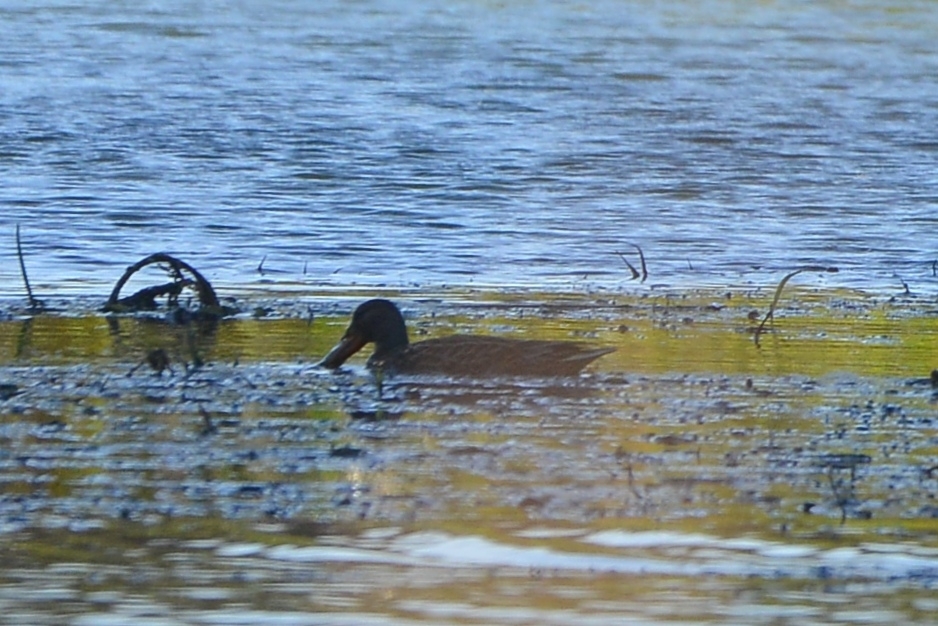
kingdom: Animalia
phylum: Chordata
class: Aves
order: Anseriformes
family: Anatidae
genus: Spatula
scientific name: Spatula clypeata
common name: Northern shoveler
